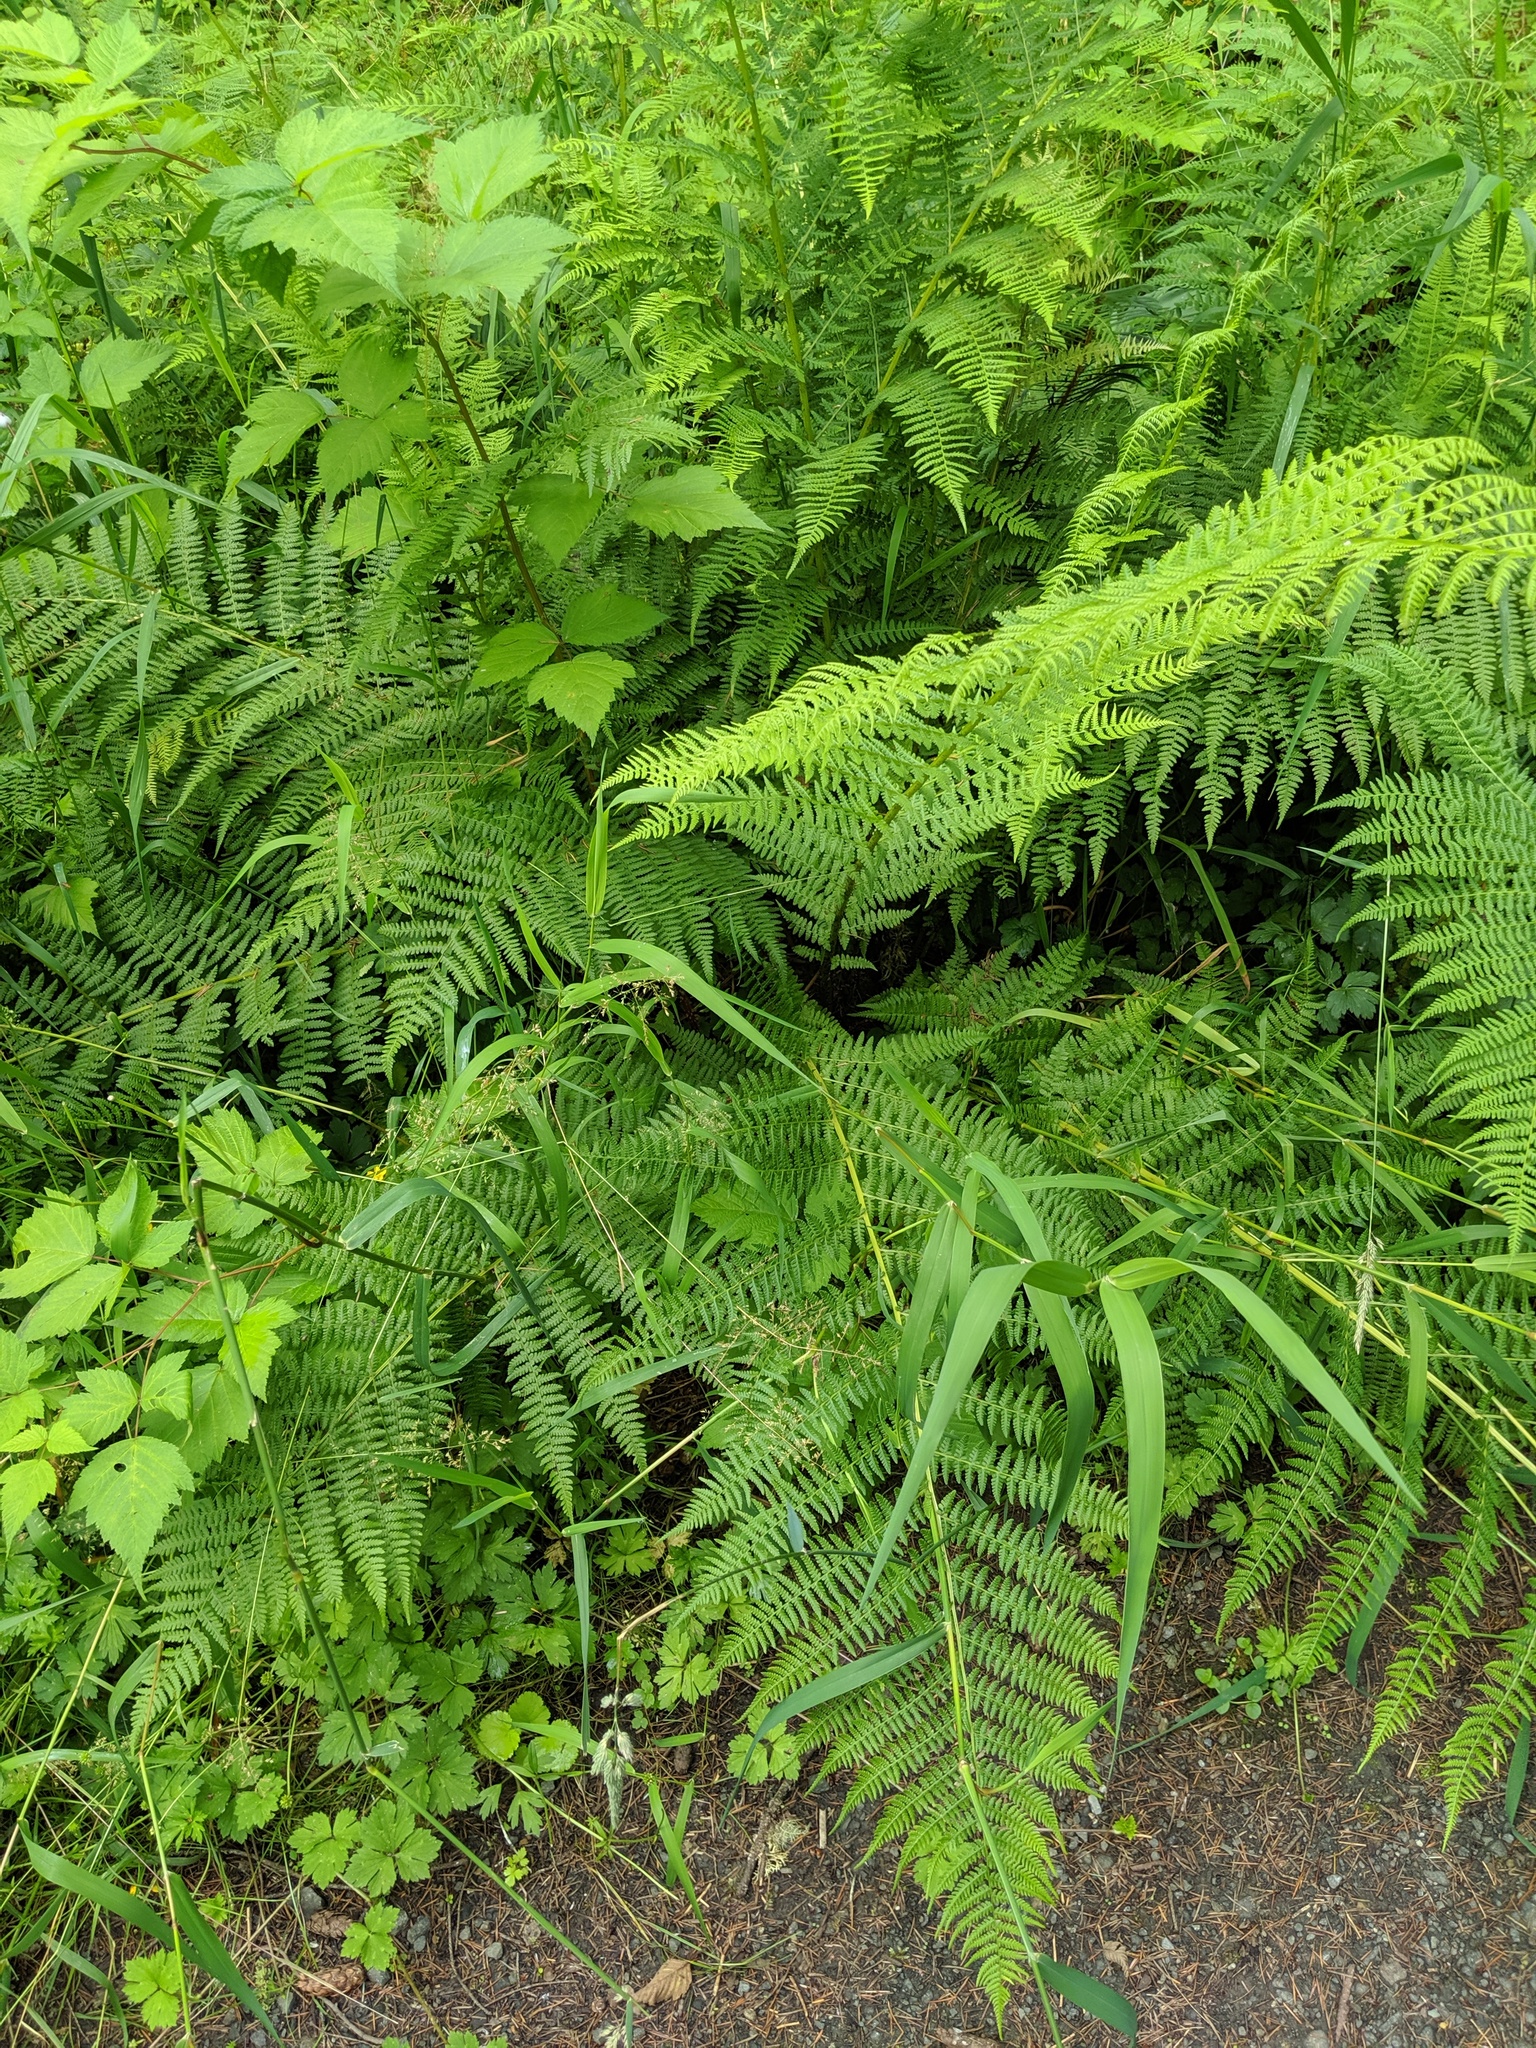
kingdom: Plantae
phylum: Tracheophyta
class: Polypodiopsida
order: Polypodiales
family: Athyriaceae
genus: Athyrium
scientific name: Athyrium filix-femina
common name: Lady fern
